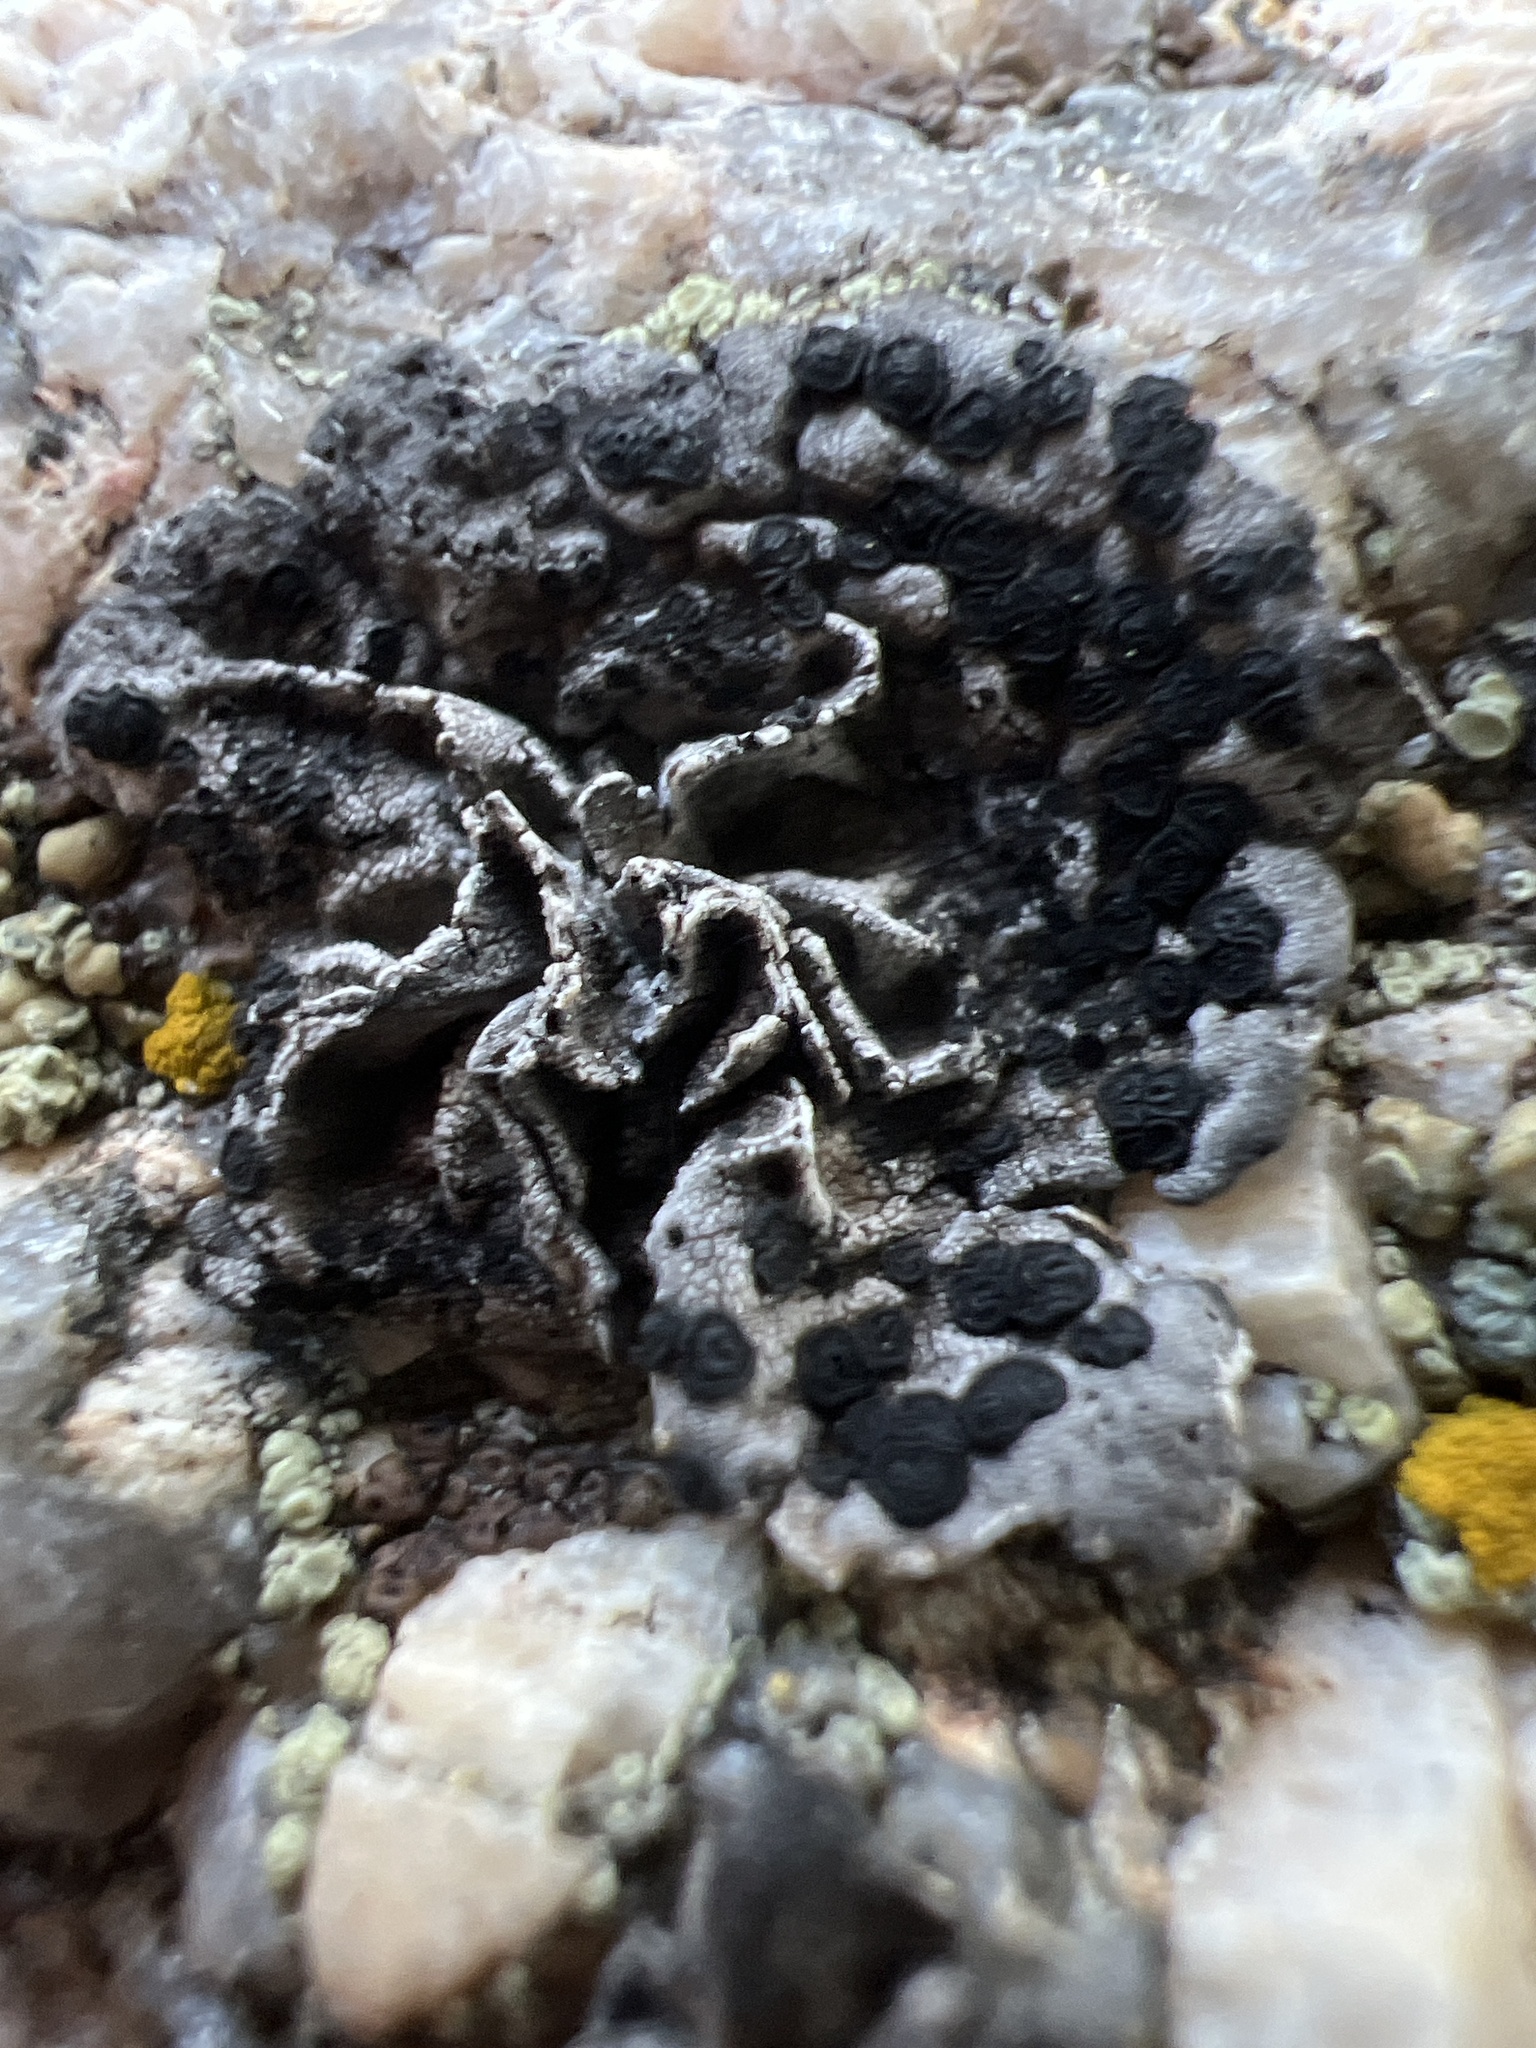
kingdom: Fungi
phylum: Ascomycota
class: Lecanoromycetes
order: Umbilicariales
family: Umbilicariaceae
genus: Umbilicaria
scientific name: Umbilicaria polaris
